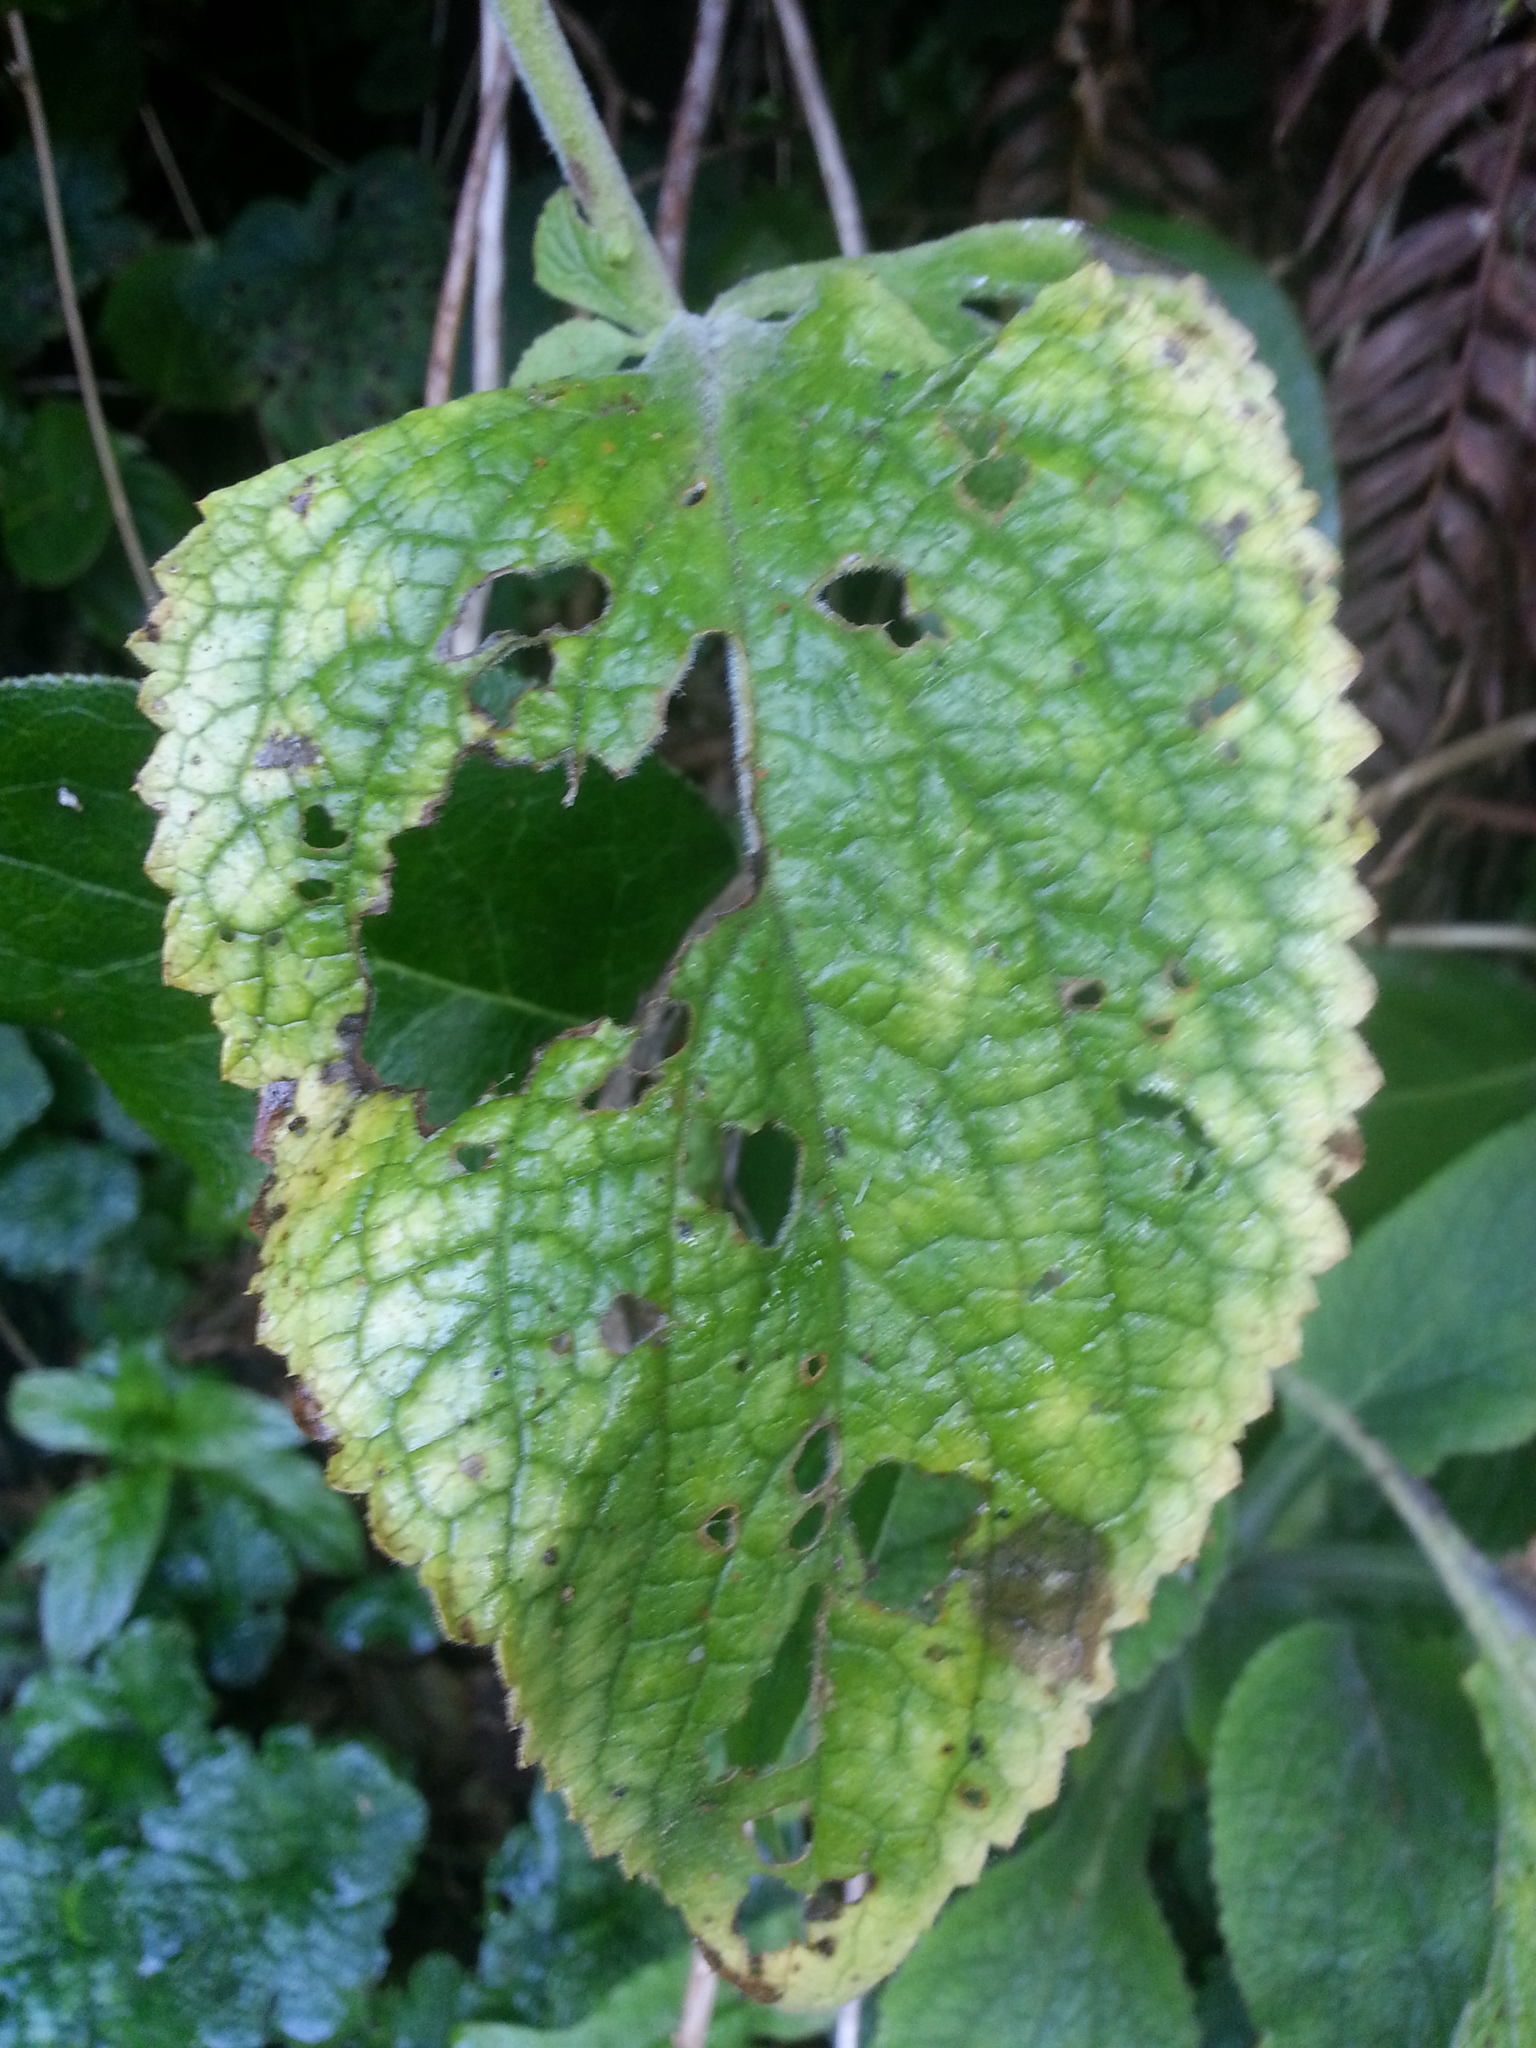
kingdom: Plantae
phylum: Tracheophyta
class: Magnoliopsida
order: Lamiales
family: Plantaginaceae
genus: Digitalis
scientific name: Digitalis purpurea
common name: Foxglove
